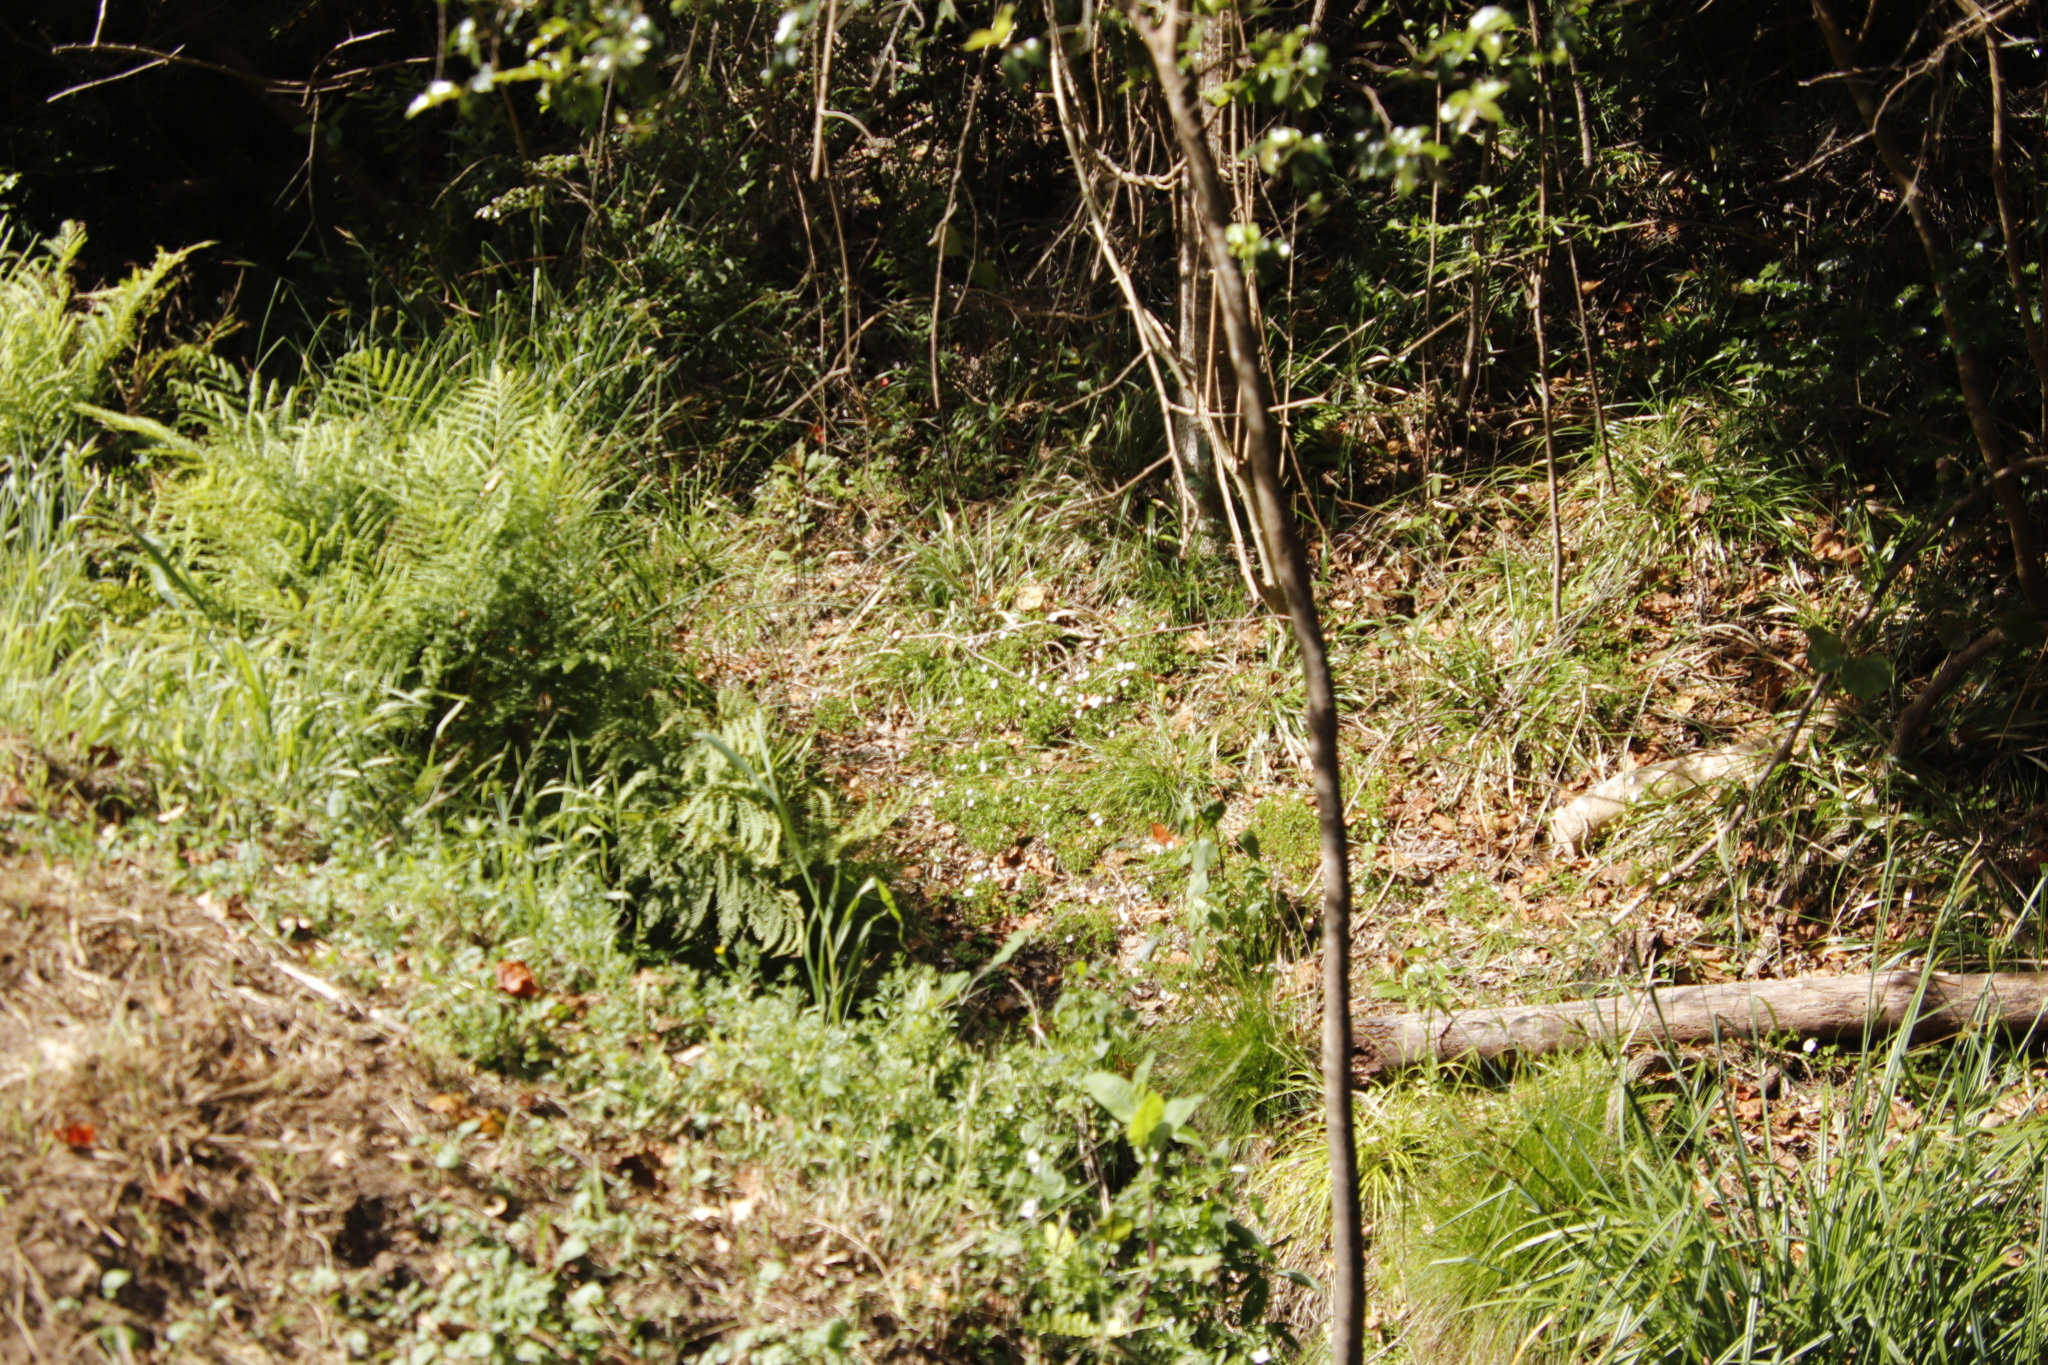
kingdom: Plantae
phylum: Tracheophyta
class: Magnoliopsida
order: Oxalidales
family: Oxalidaceae
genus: Oxalis
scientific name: Oxalis incarnata
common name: Pale pink-sorrel
